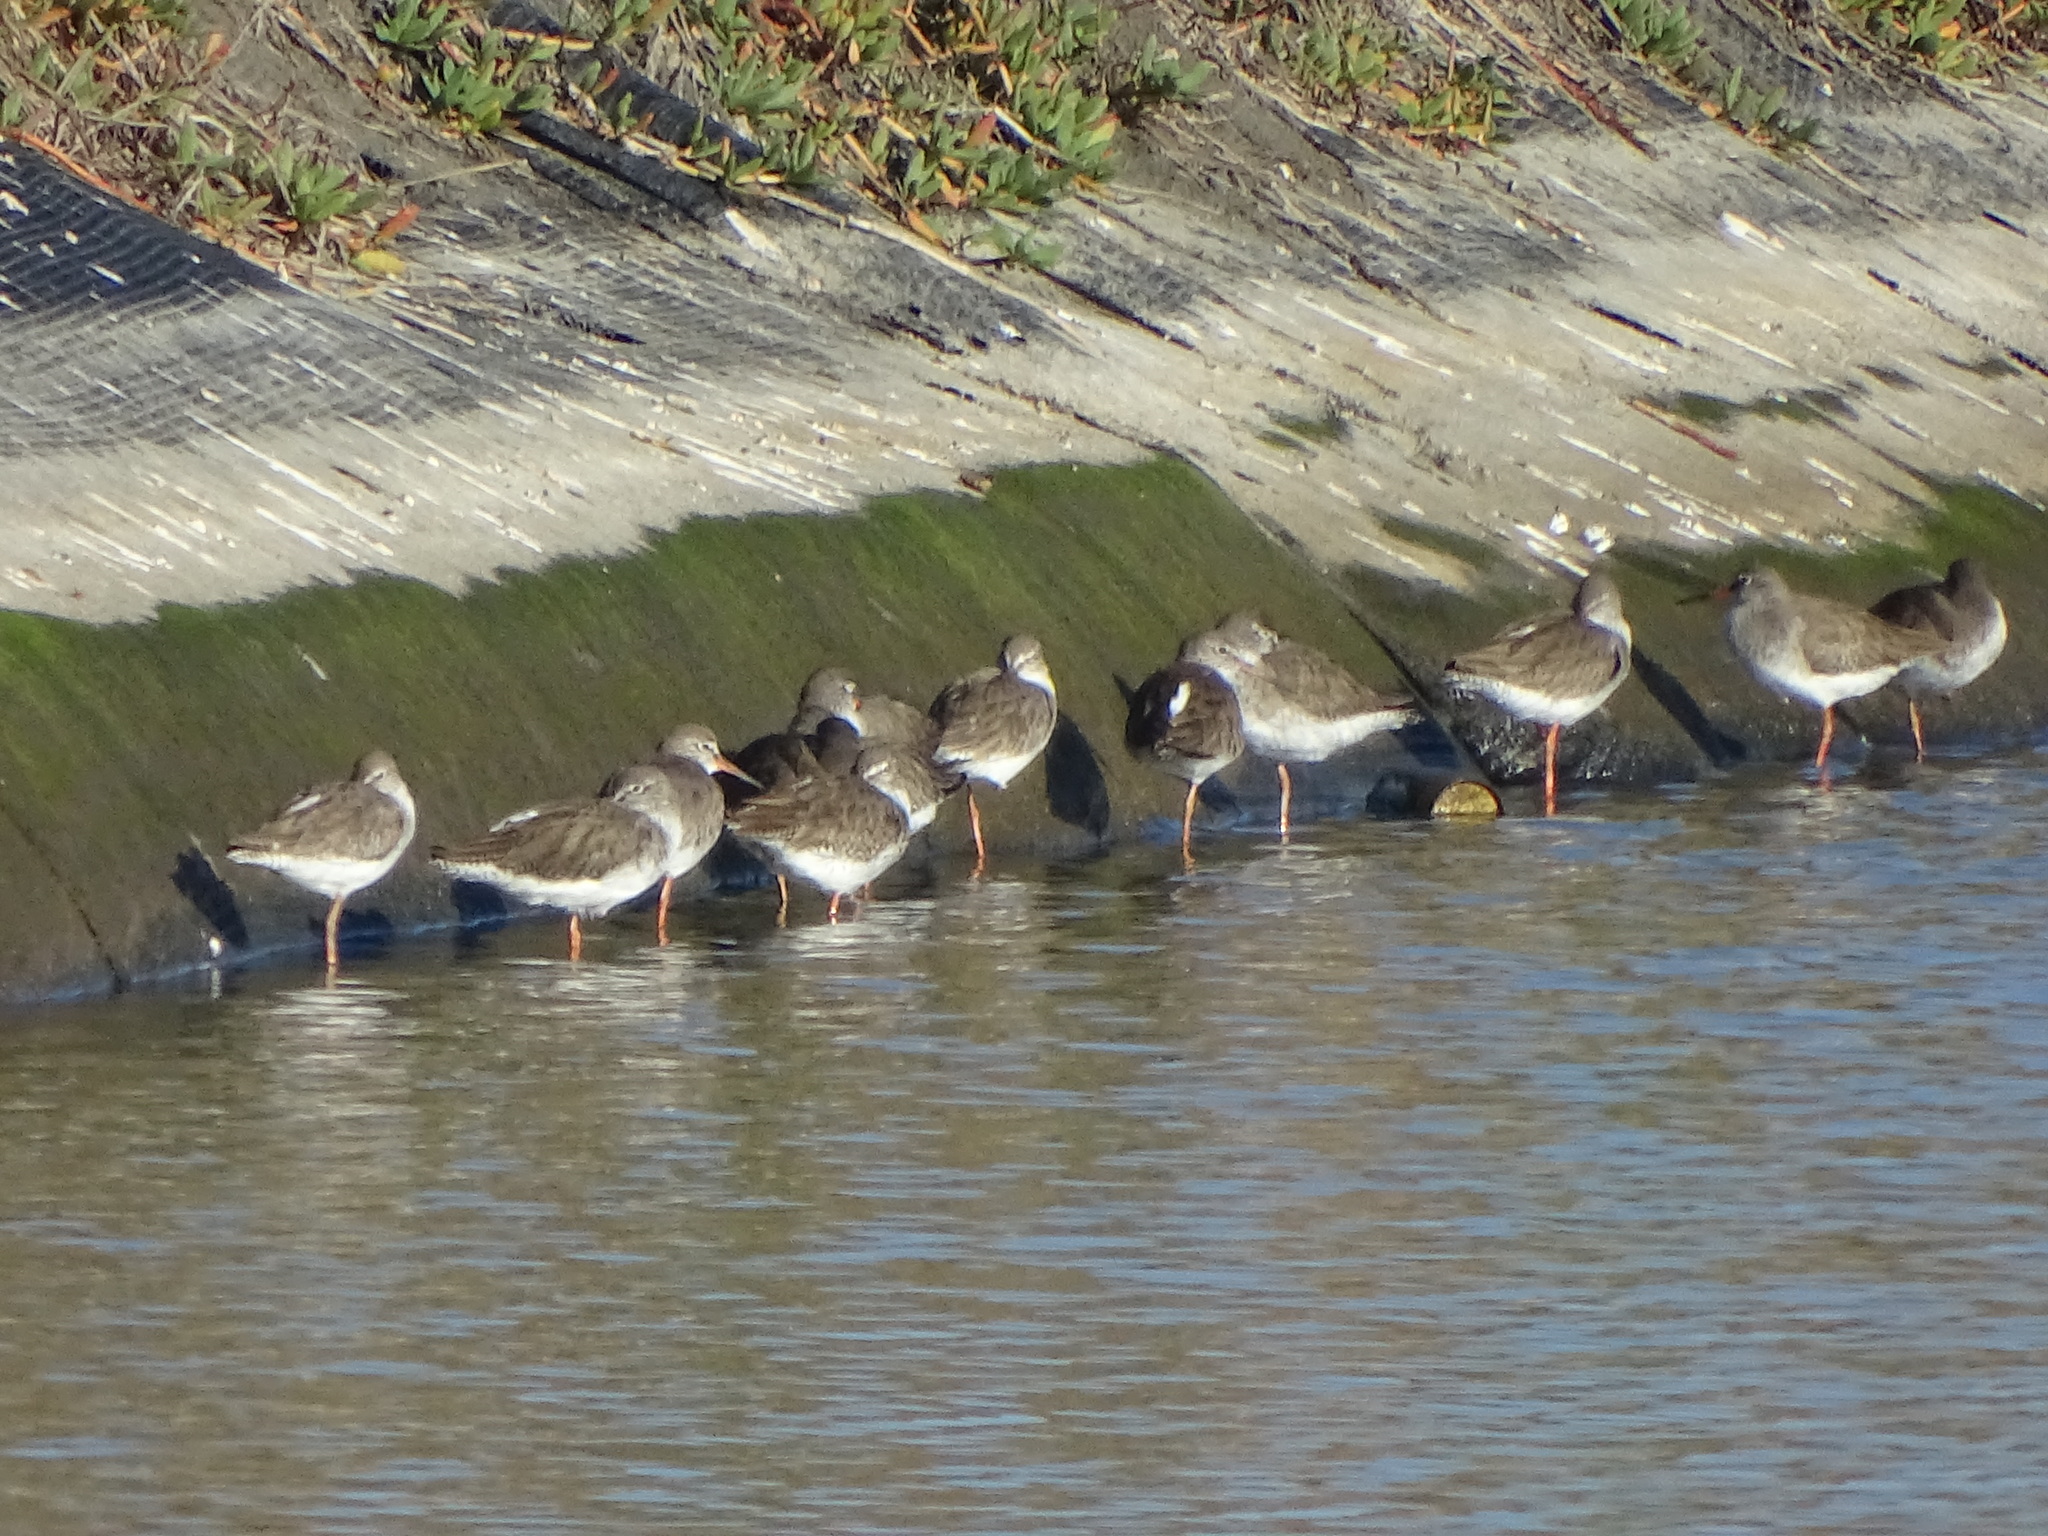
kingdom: Animalia
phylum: Chordata
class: Aves
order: Charadriiformes
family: Scolopacidae
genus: Tringa
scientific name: Tringa totanus
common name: Common redshank
